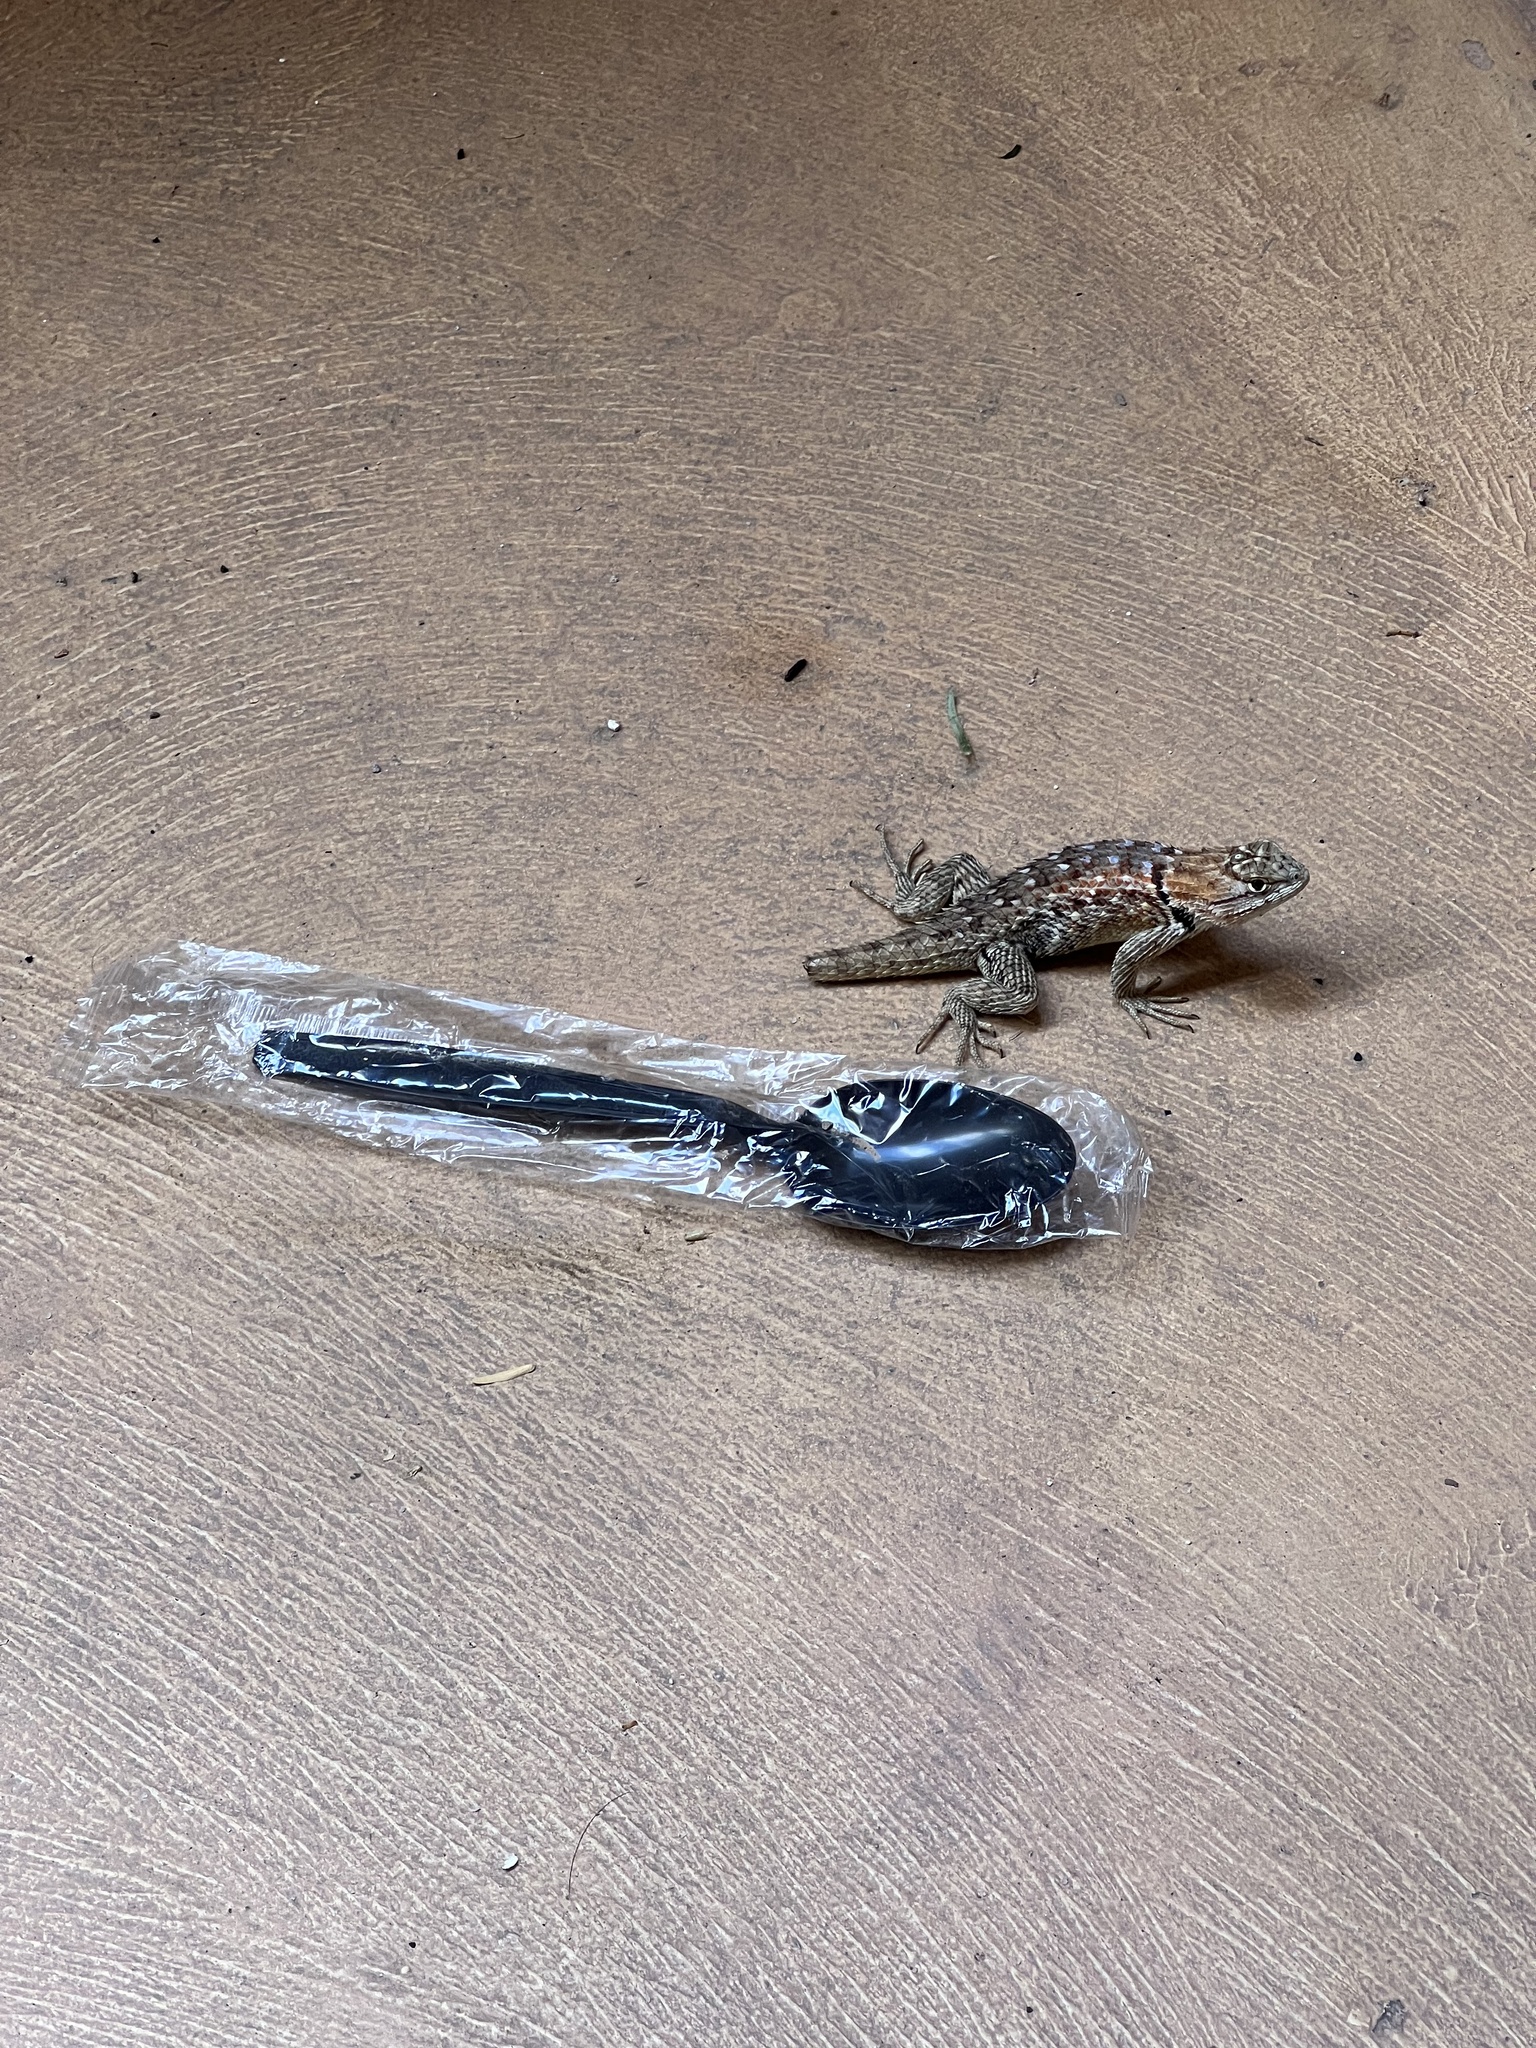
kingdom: Animalia
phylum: Chordata
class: Squamata
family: Phrynosomatidae
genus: Sceloporus
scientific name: Sceloporus magister
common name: Desert spiny lizard
